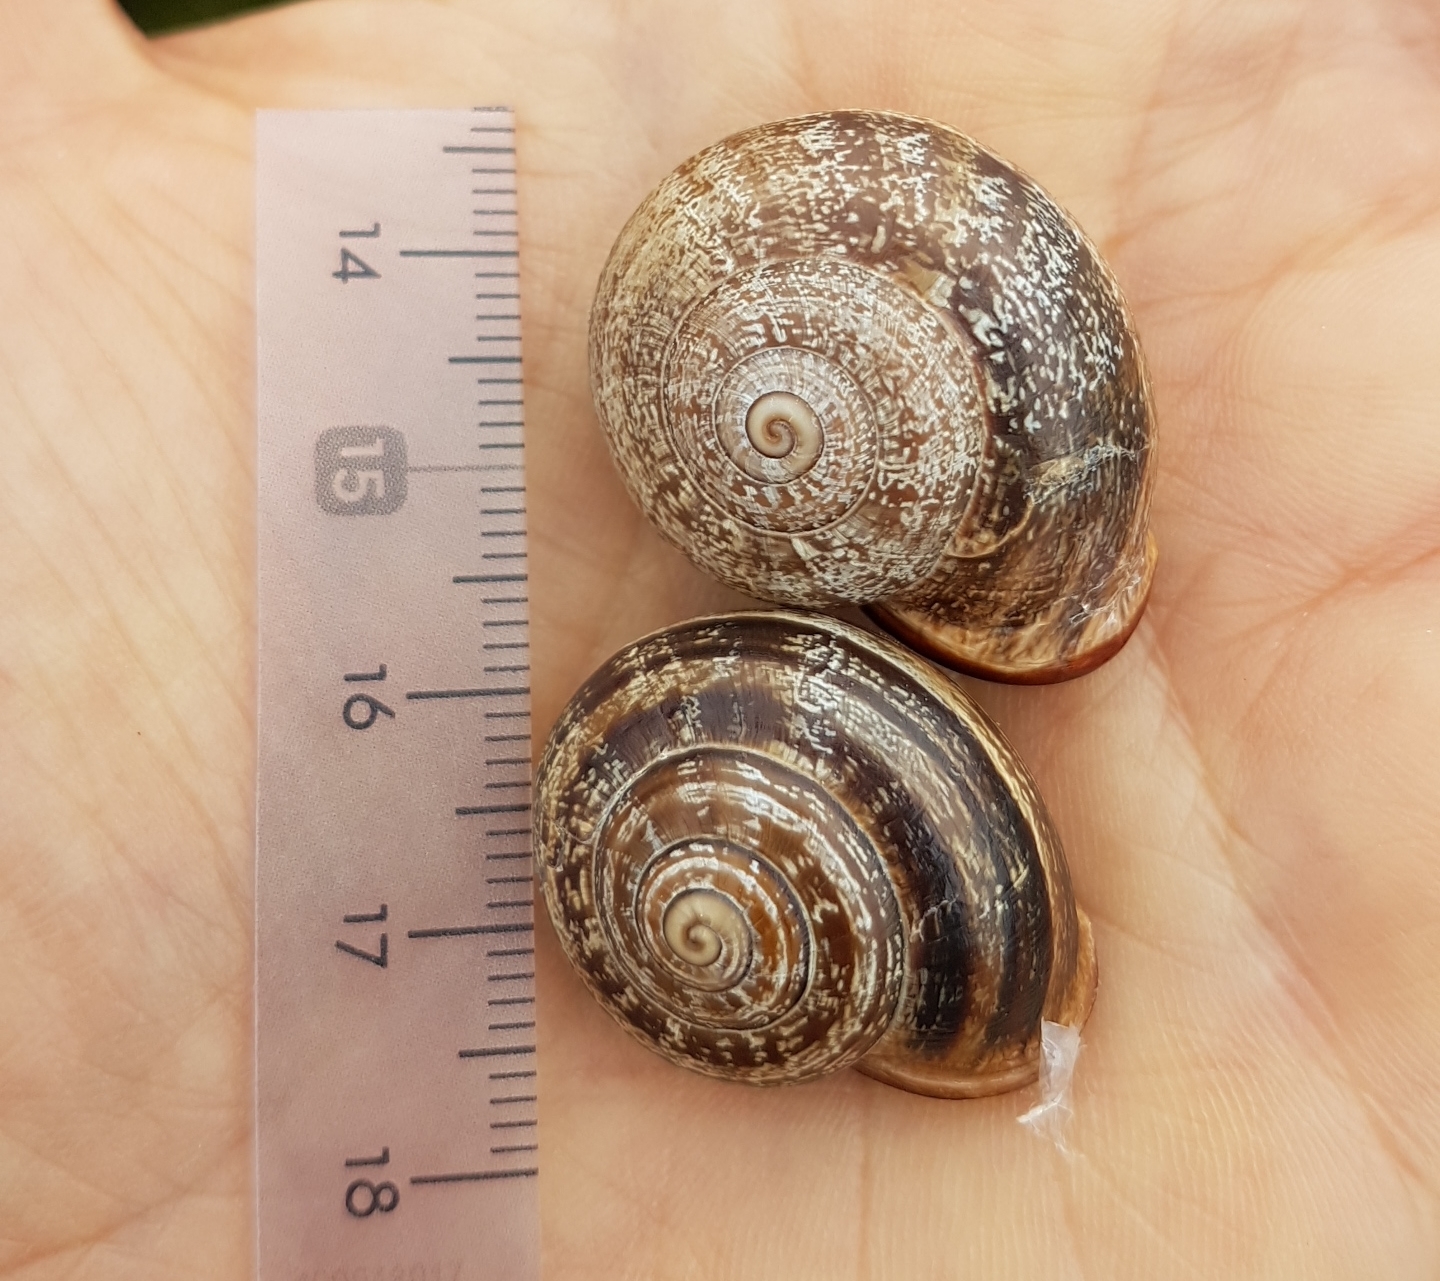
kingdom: Animalia
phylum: Mollusca
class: Gastropoda
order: Stylommatophora
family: Helicidae
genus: Otala
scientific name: Otala lactea
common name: Milk snail
